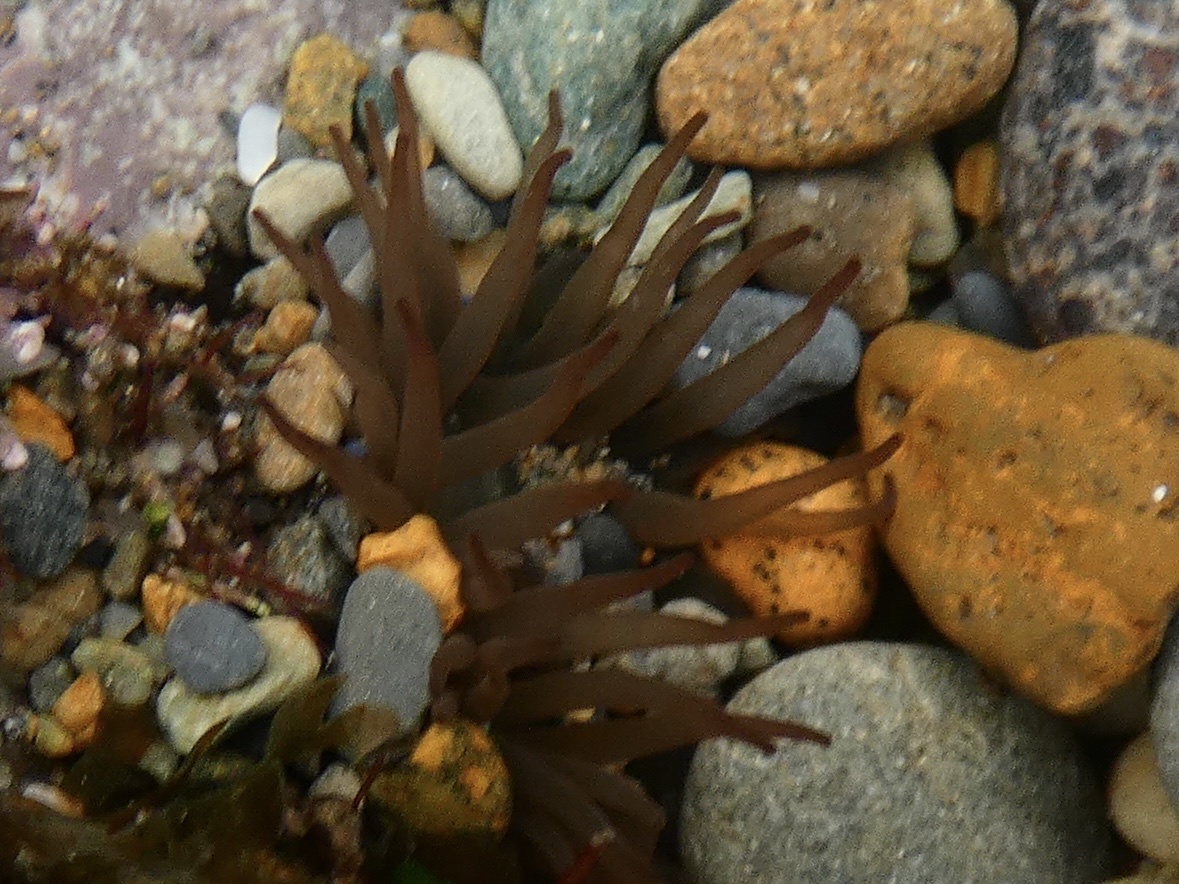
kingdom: Animalia
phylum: Cnidaria
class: Anthozoa
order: Actiniaria
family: Actiniidae
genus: Actinia
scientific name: Actinia equina
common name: Beadlet anemone
